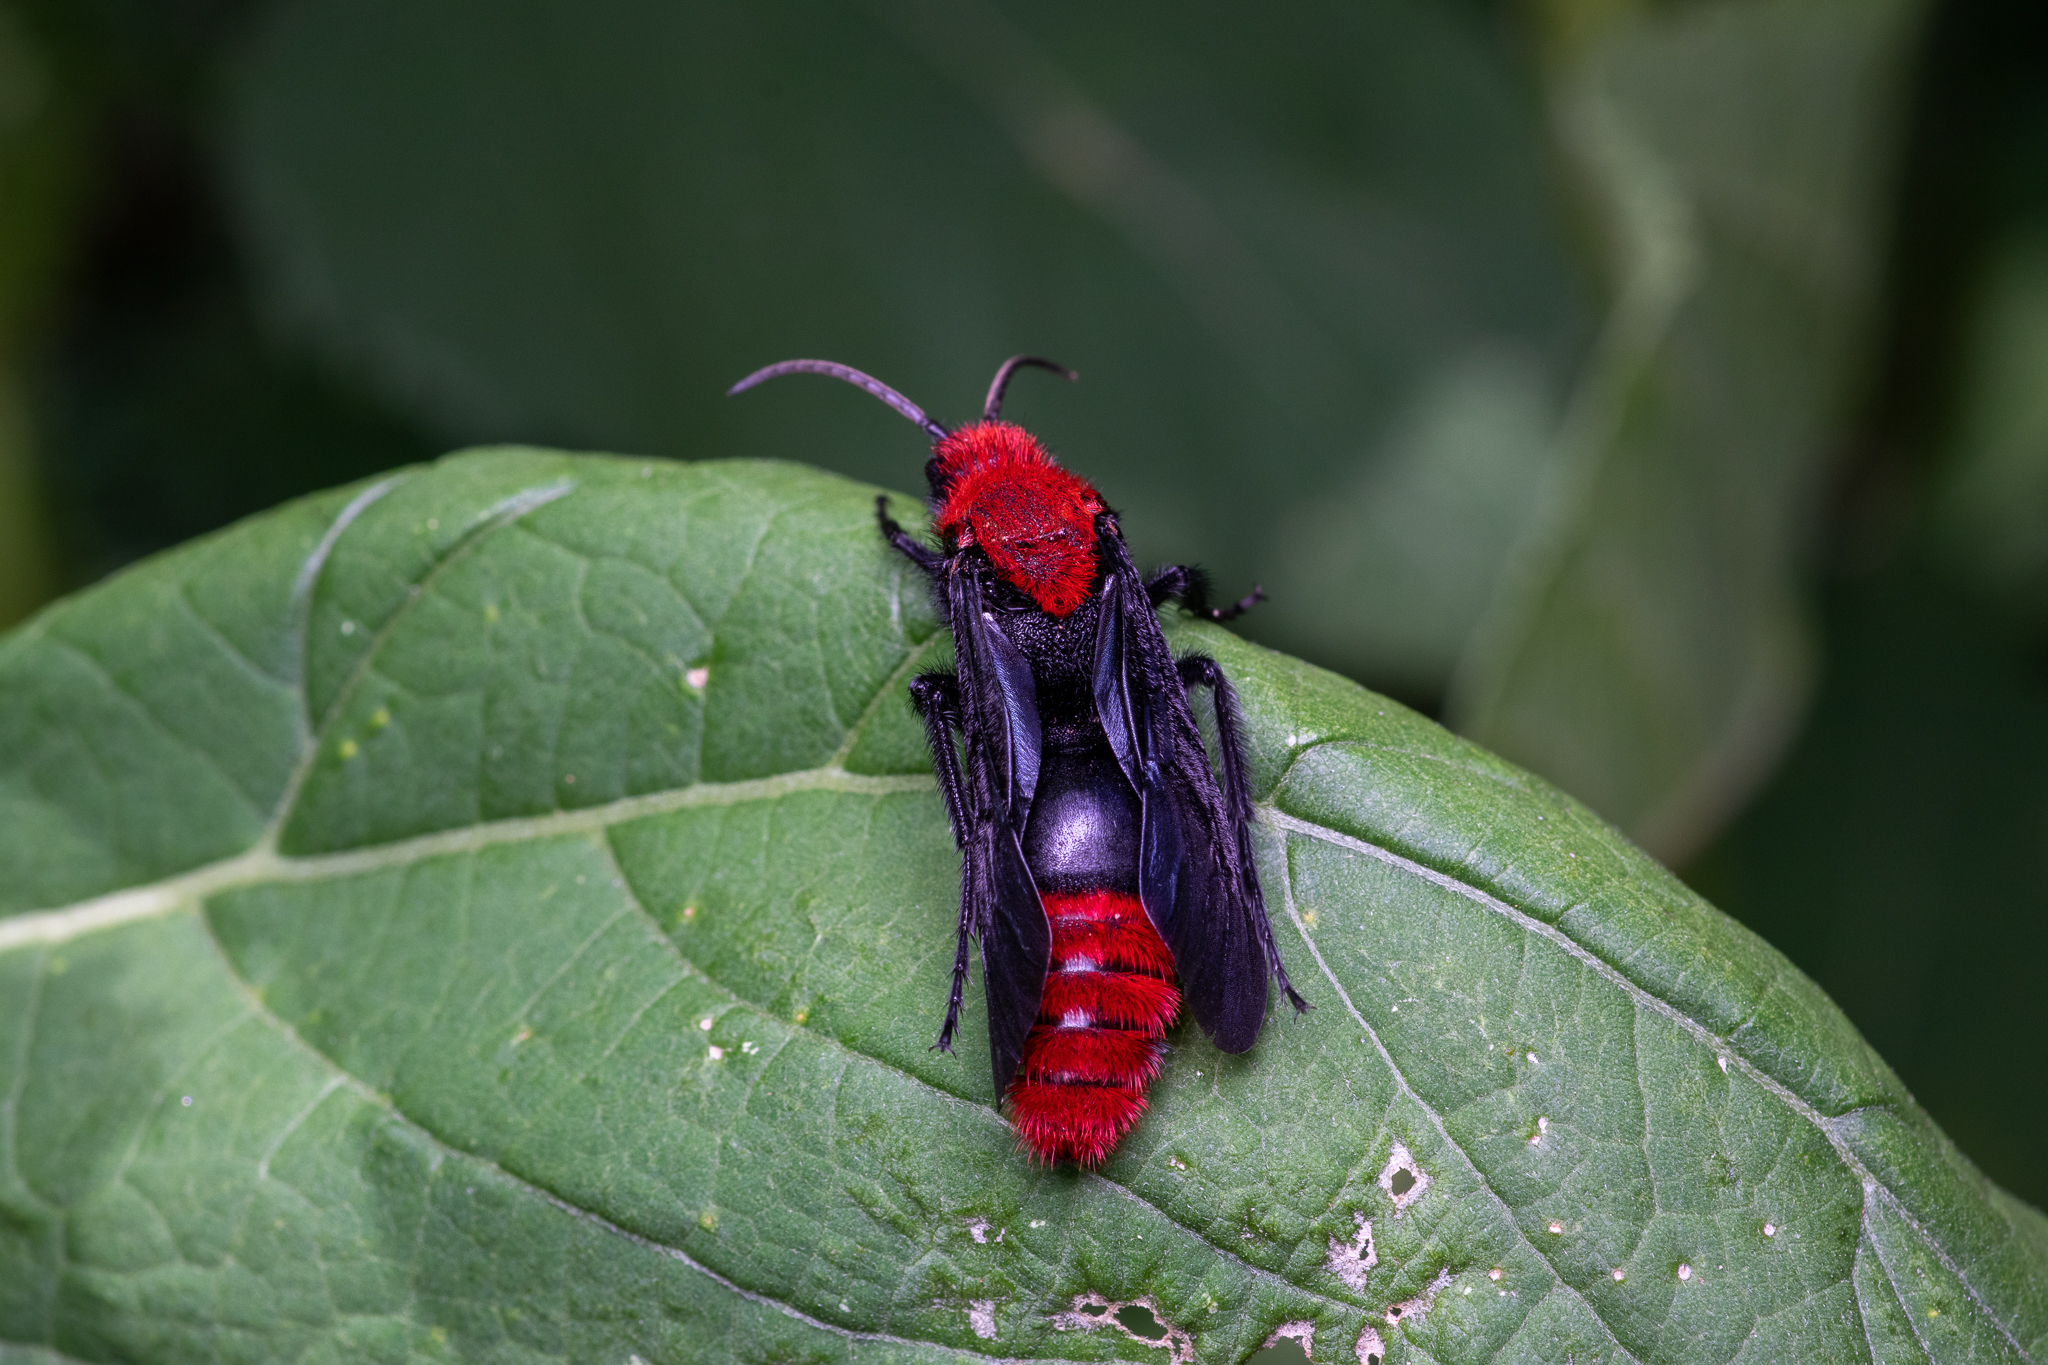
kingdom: Animalia
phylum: Arthropoda
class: Insecta
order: Hymenoptera
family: Mutillidae
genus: Dasymutilla
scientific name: Dasymutilla occidentalis
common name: Common eastern velvet ant
